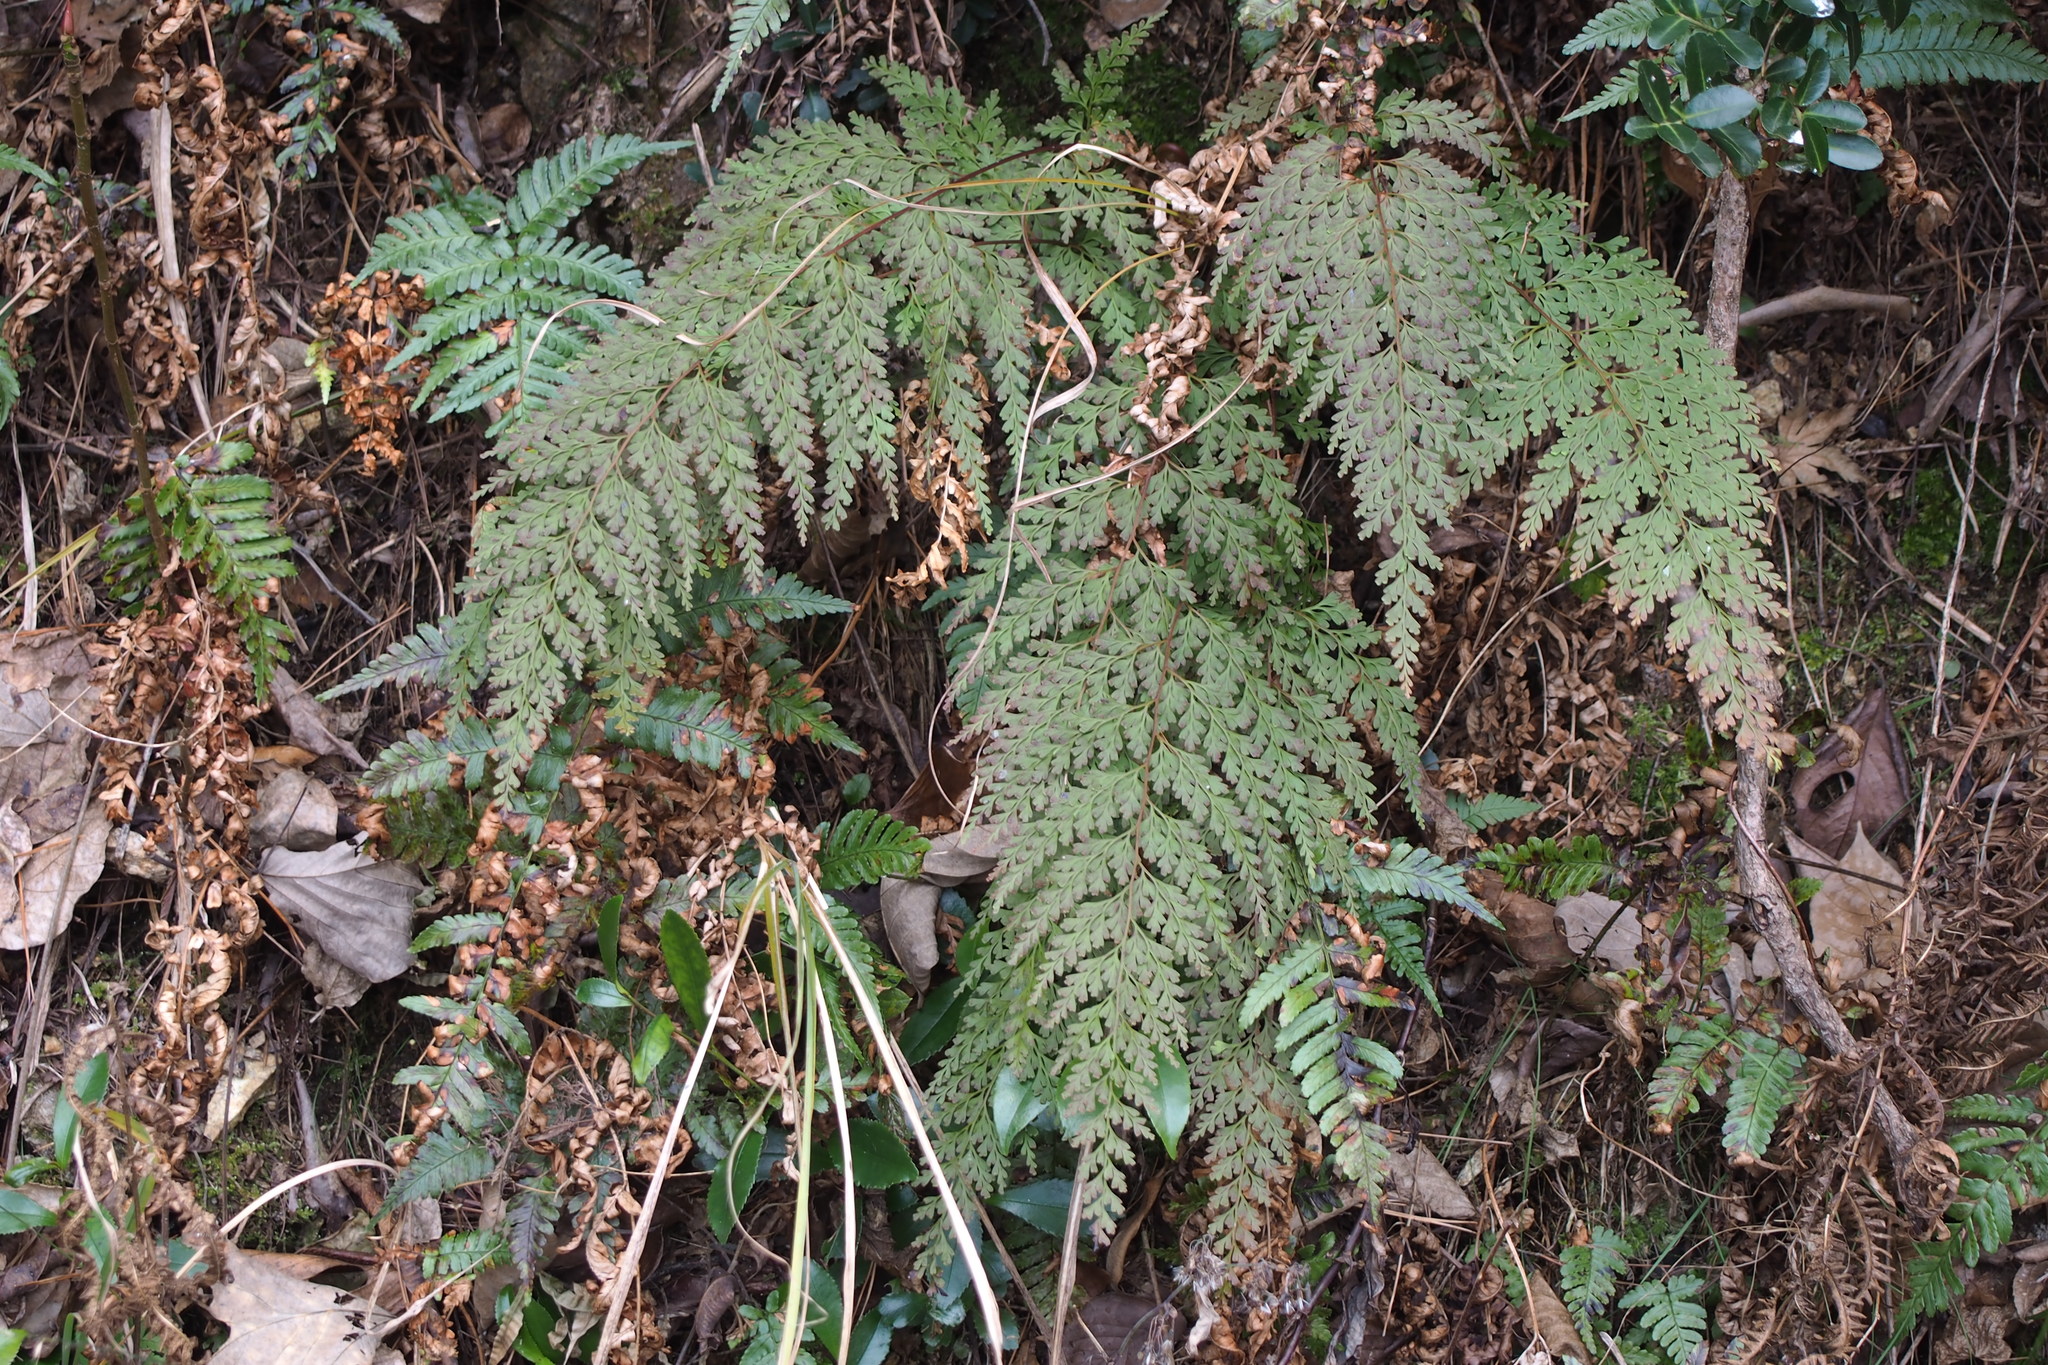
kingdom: Plantae
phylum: Tracheophyta
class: Polypodiopsida
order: Polypodiales
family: Lindsaeaceae
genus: Odontosoria
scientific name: Odontosoria chinensis
